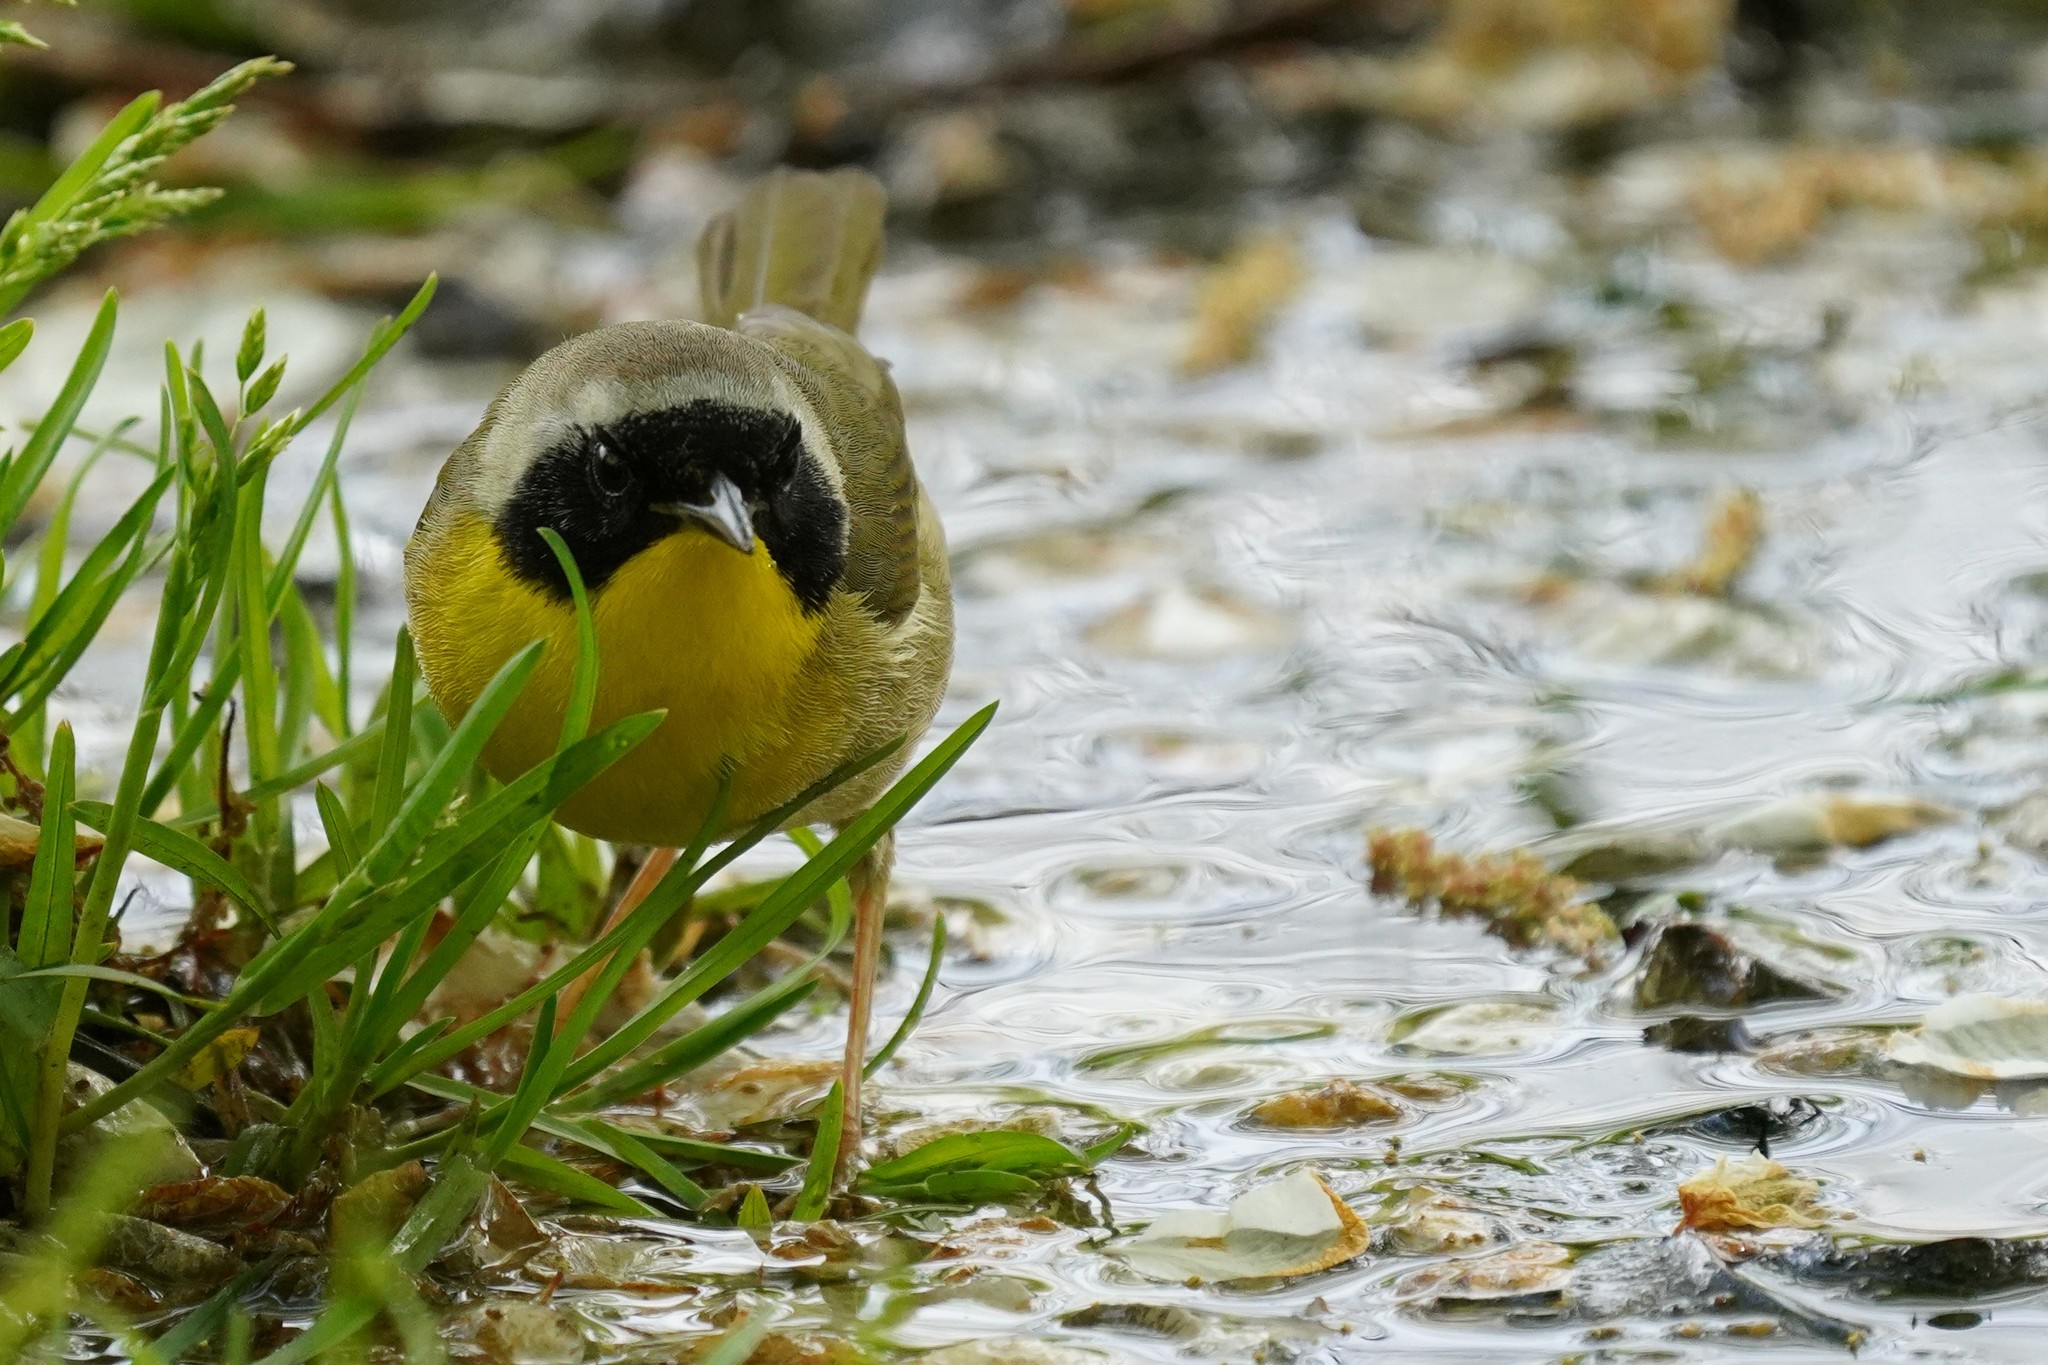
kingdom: Animalia
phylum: Chordata
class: Aves
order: Passeriformes
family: Parulidae
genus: Geothlypis
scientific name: Geothlypis trichas
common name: Common yellowthroat
